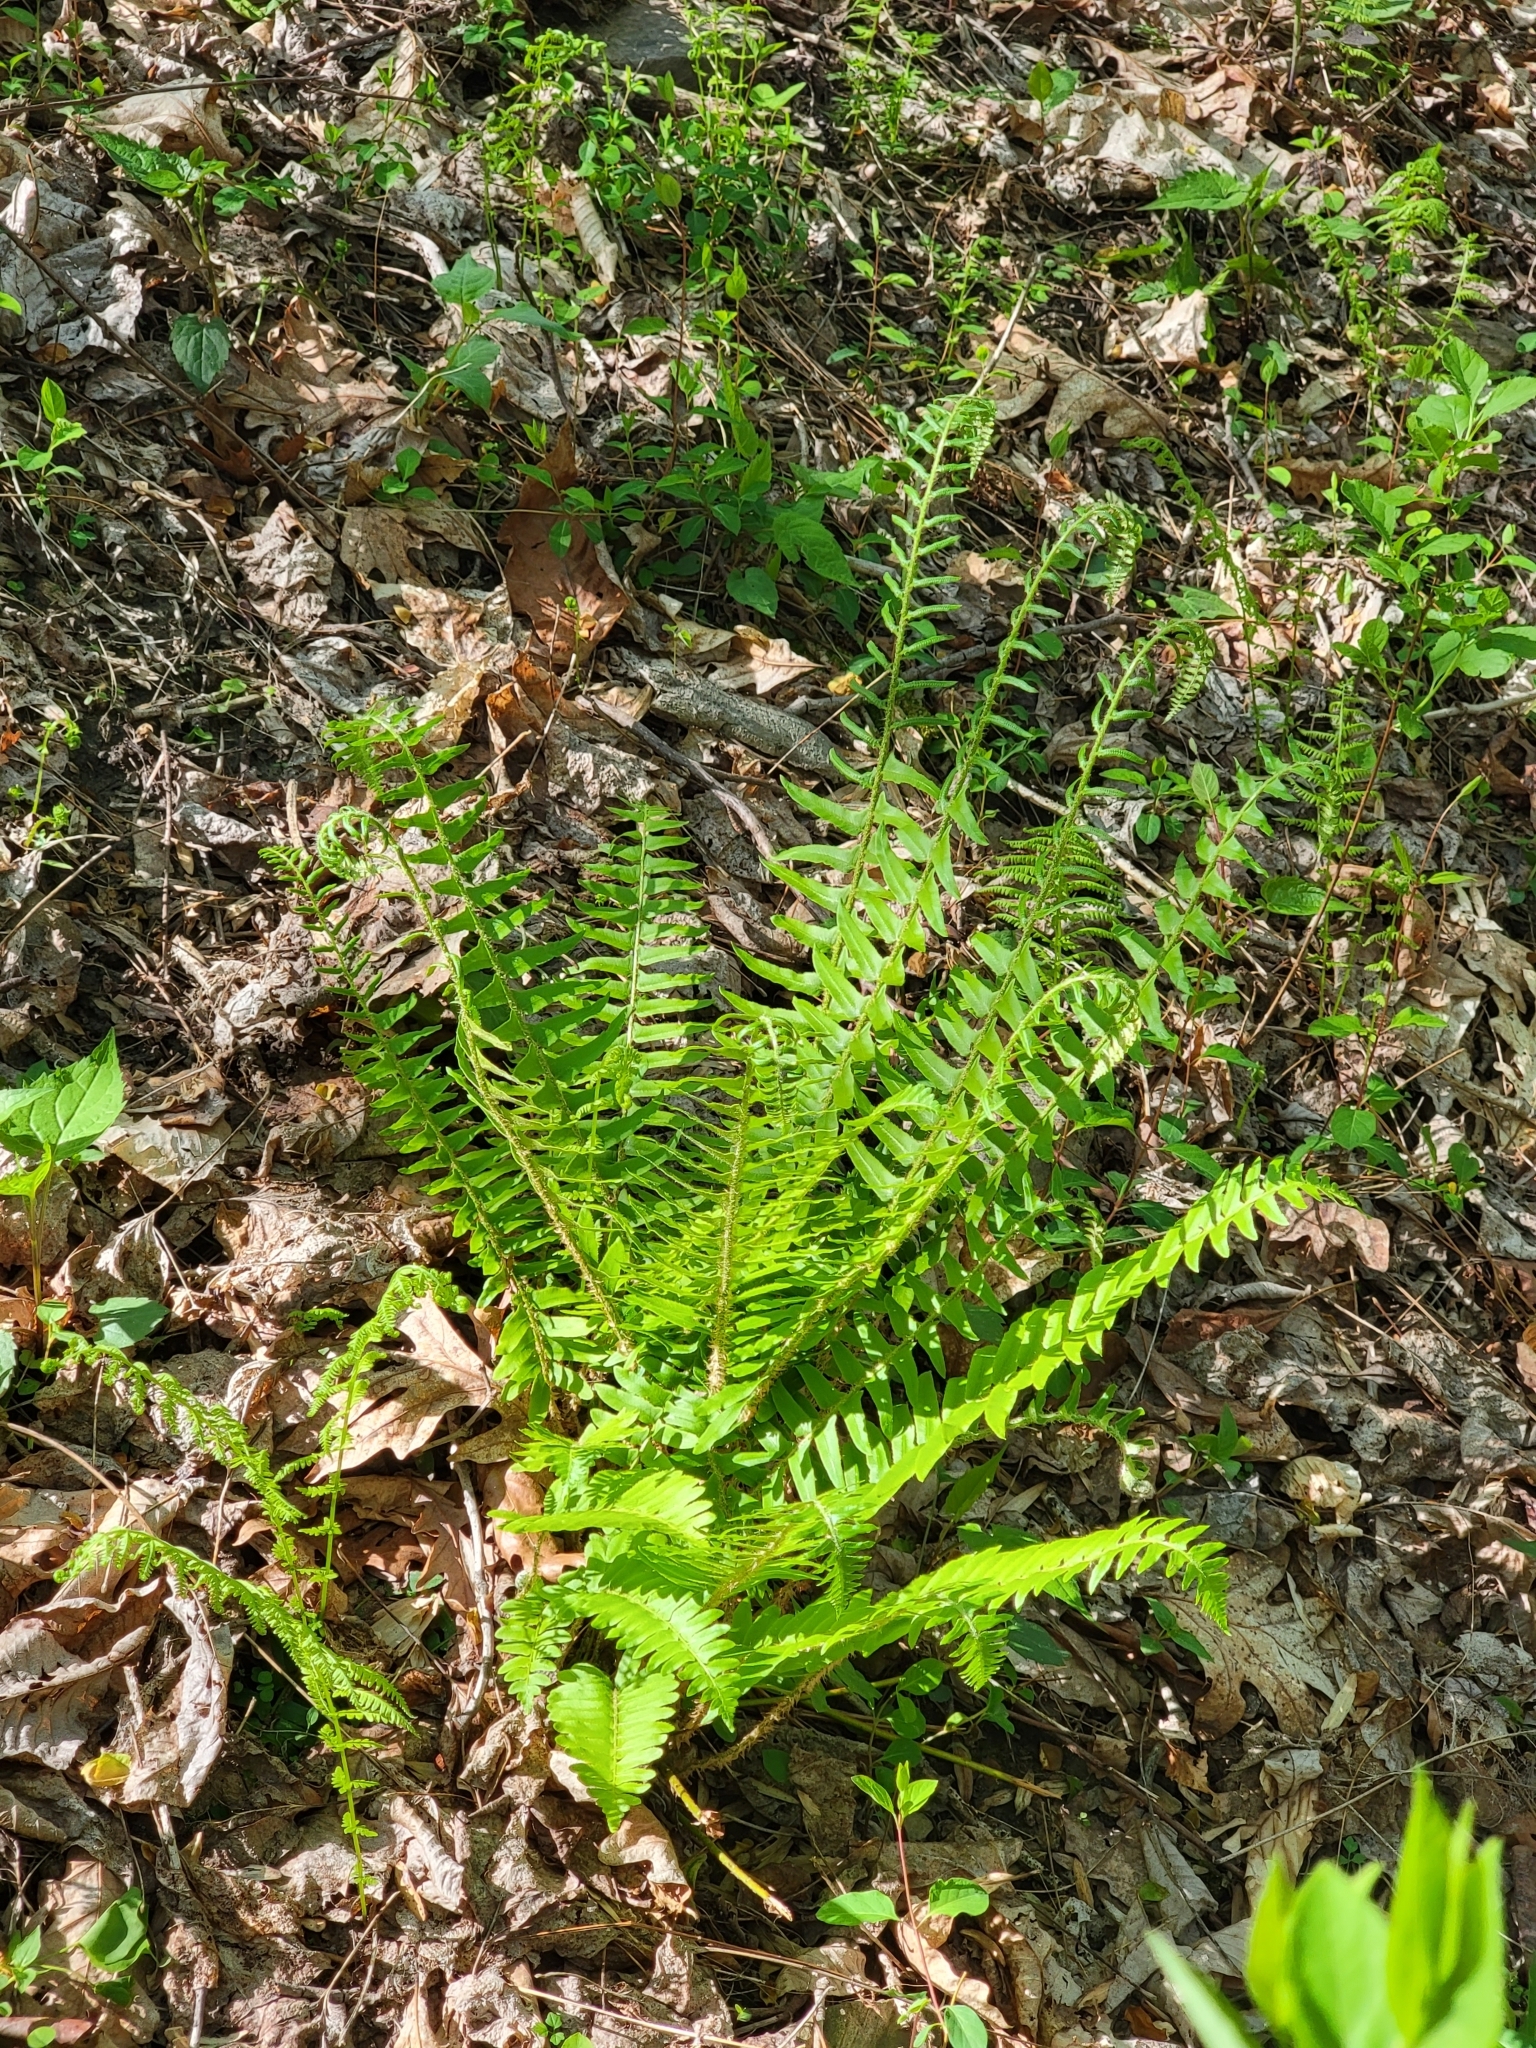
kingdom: Plantae
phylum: Tracheophyta
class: Polypodiopsida
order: Polypodiales
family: Dryopteridaceae
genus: Polystichum
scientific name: Polystichum acrostichoides
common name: Christmas fern
